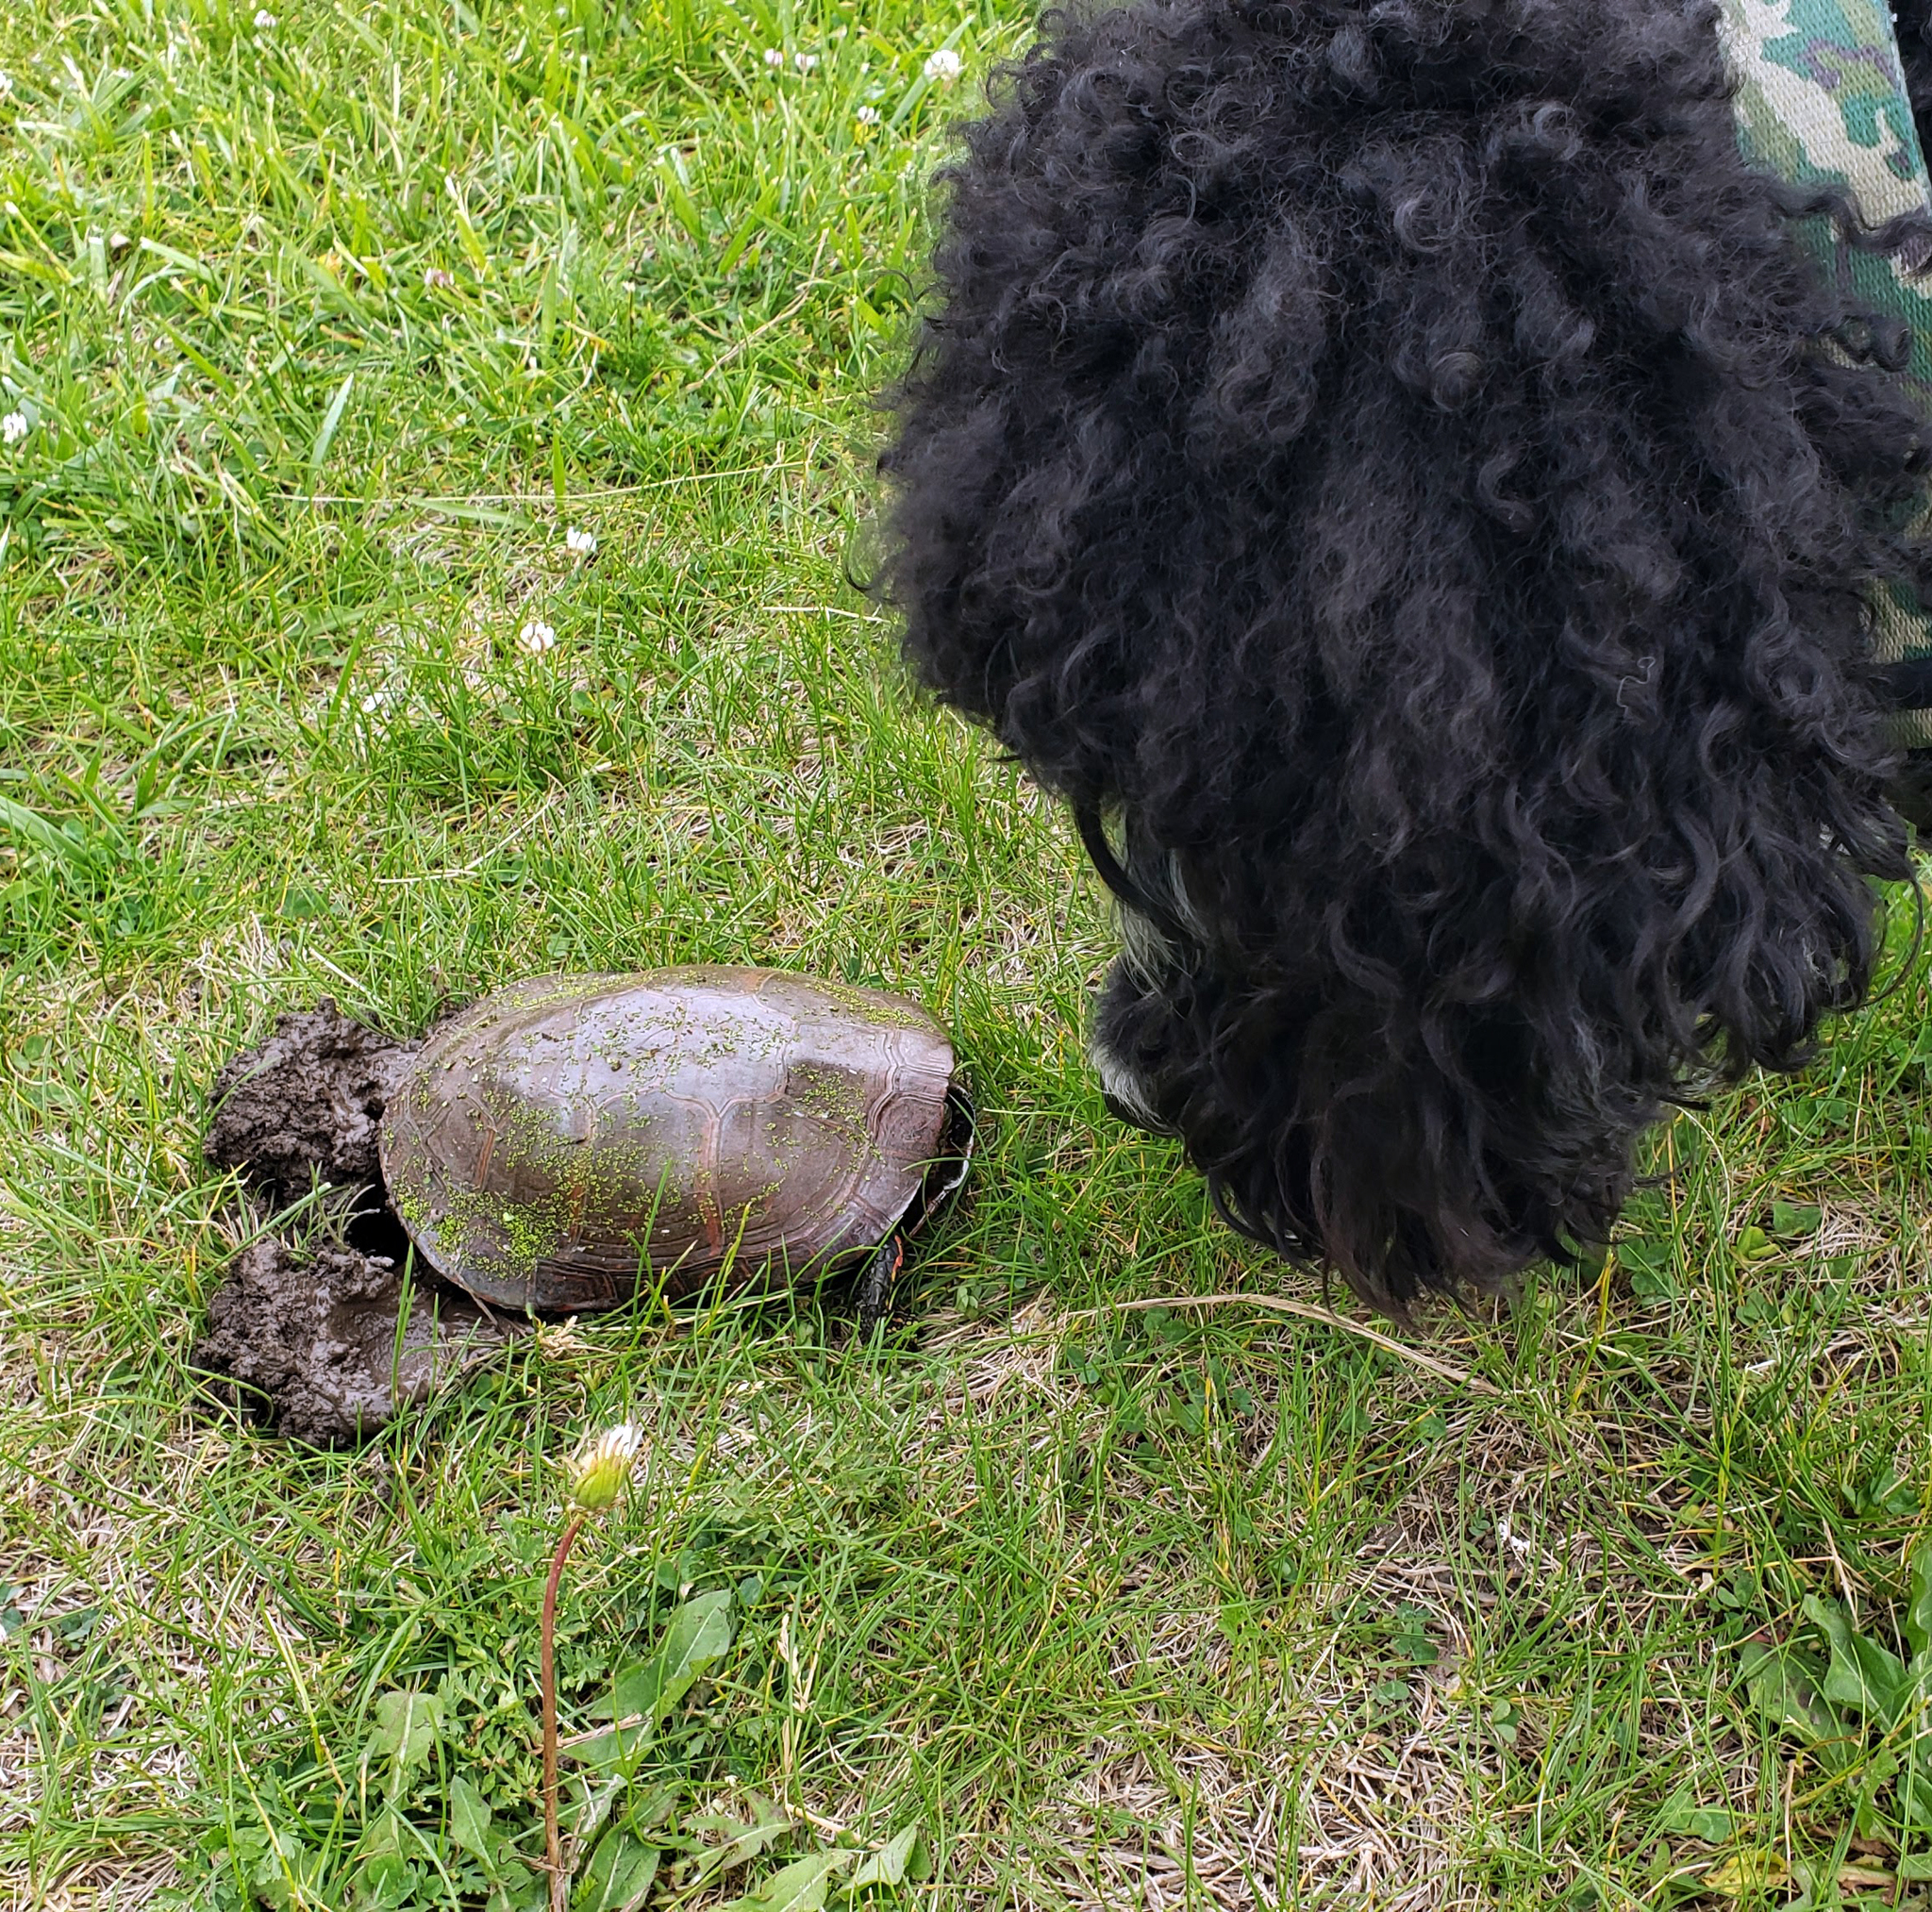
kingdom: Animalia
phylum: Chordata
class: Testudines
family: Emydidae
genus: Chrysemys
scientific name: Chrysemys picta
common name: Painted turtle
